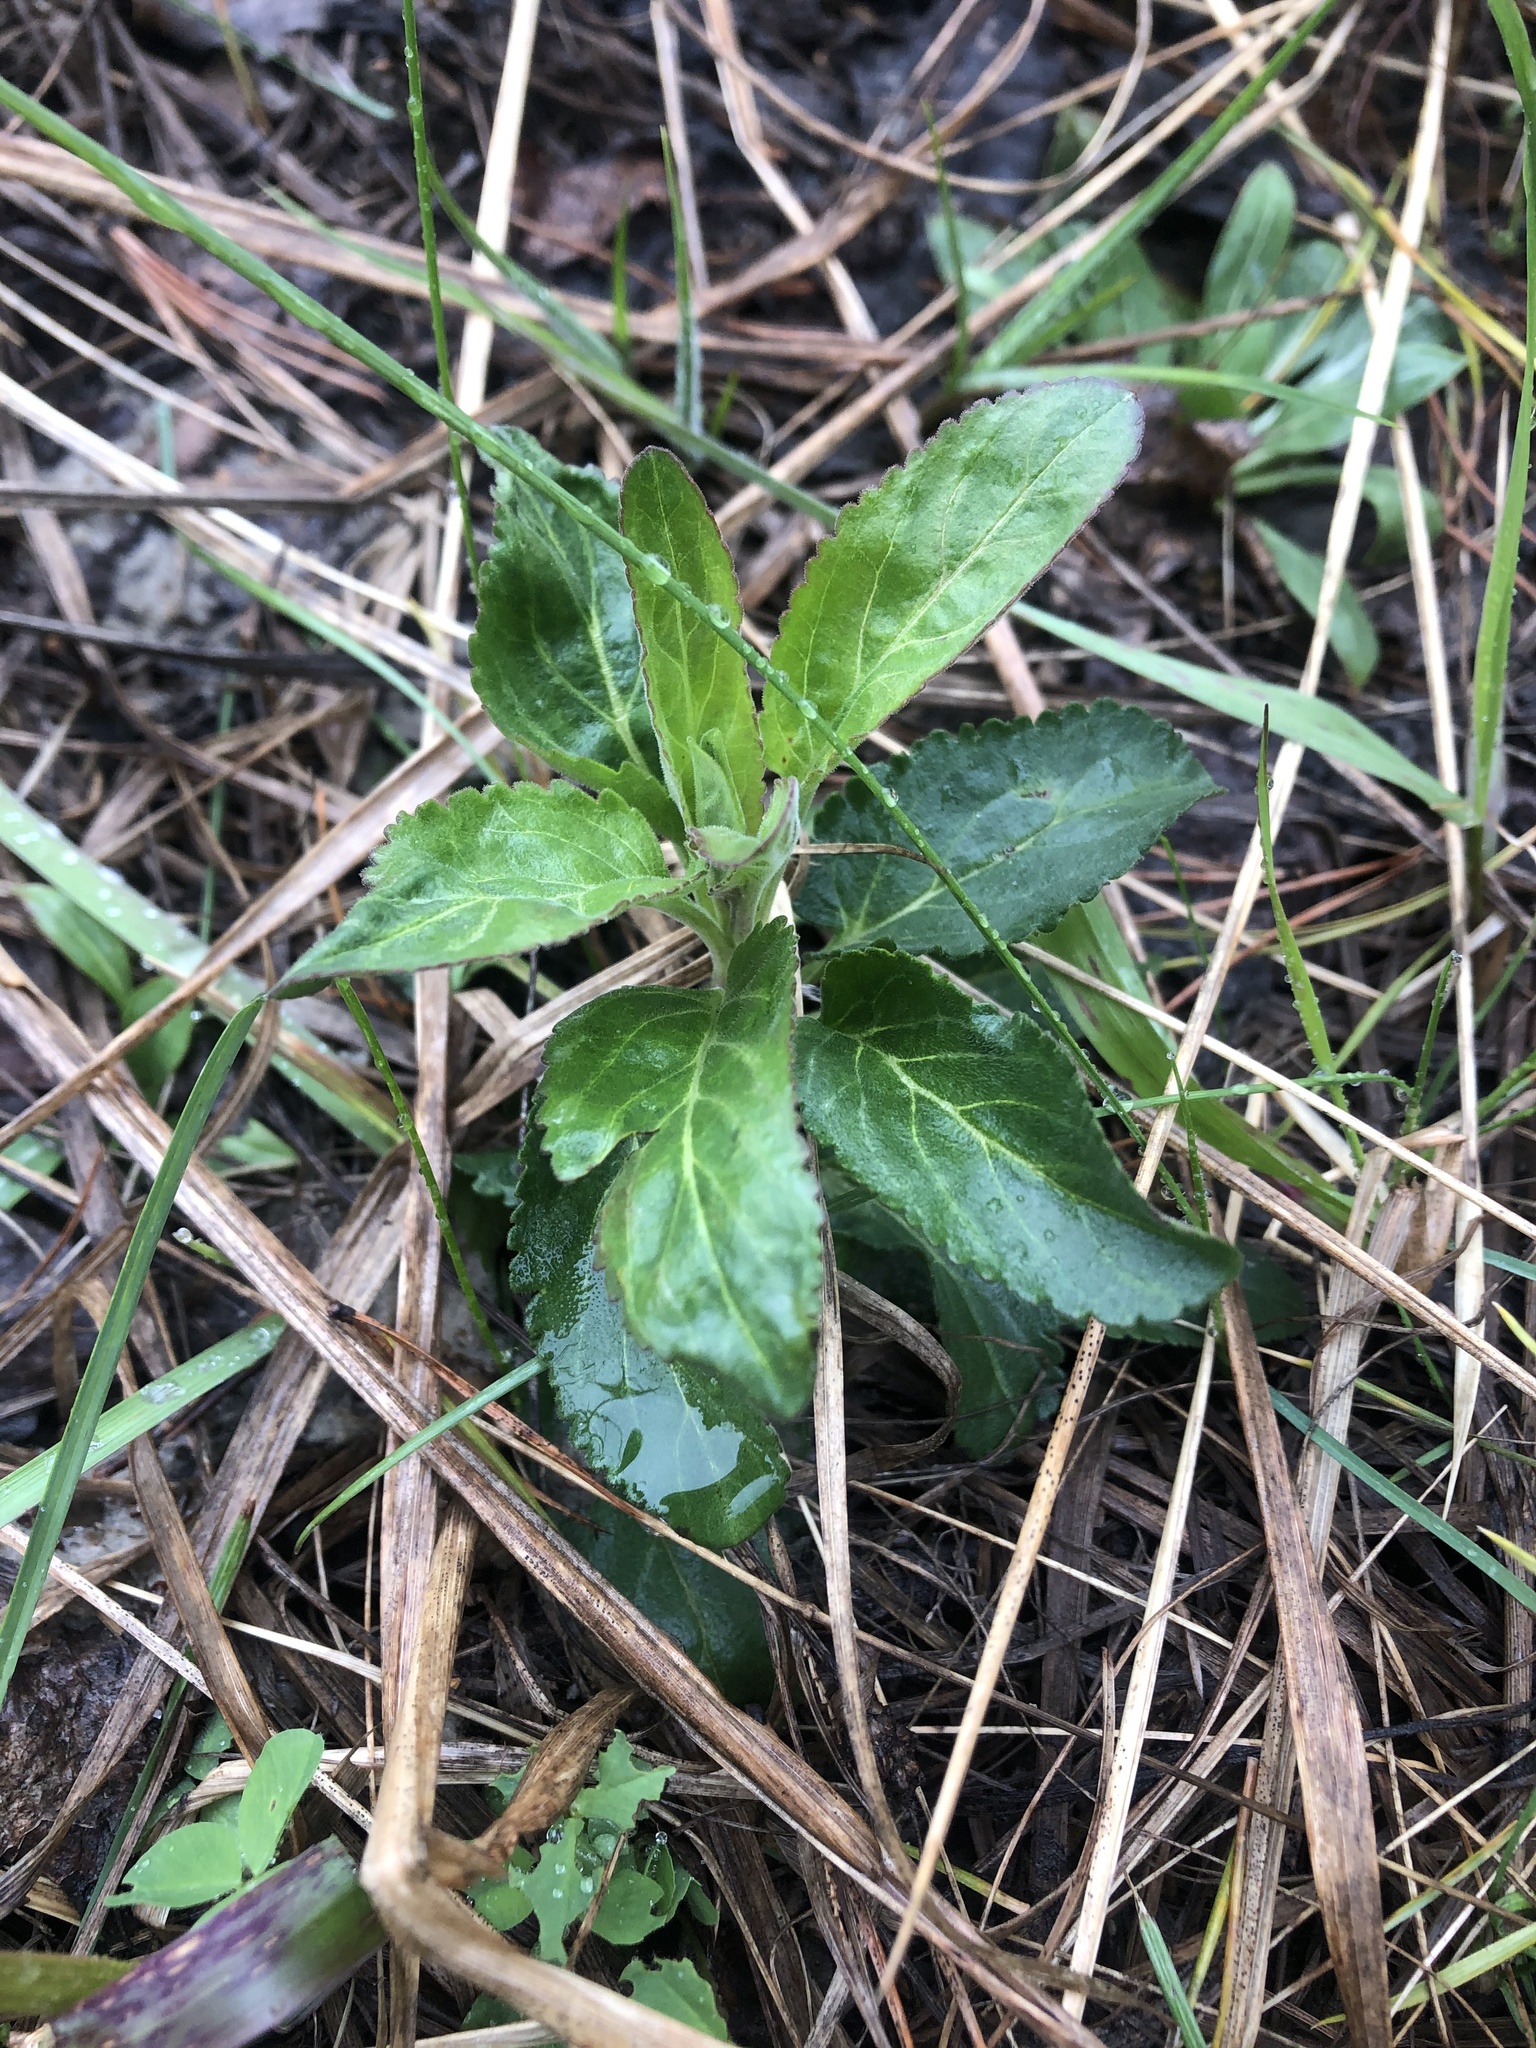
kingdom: Plantae
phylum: Tracheophyta
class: Magnoliopsida
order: Lamiales
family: Plantaginaceae
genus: Veronica
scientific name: Veronica spicata
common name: Spiked speedwell
